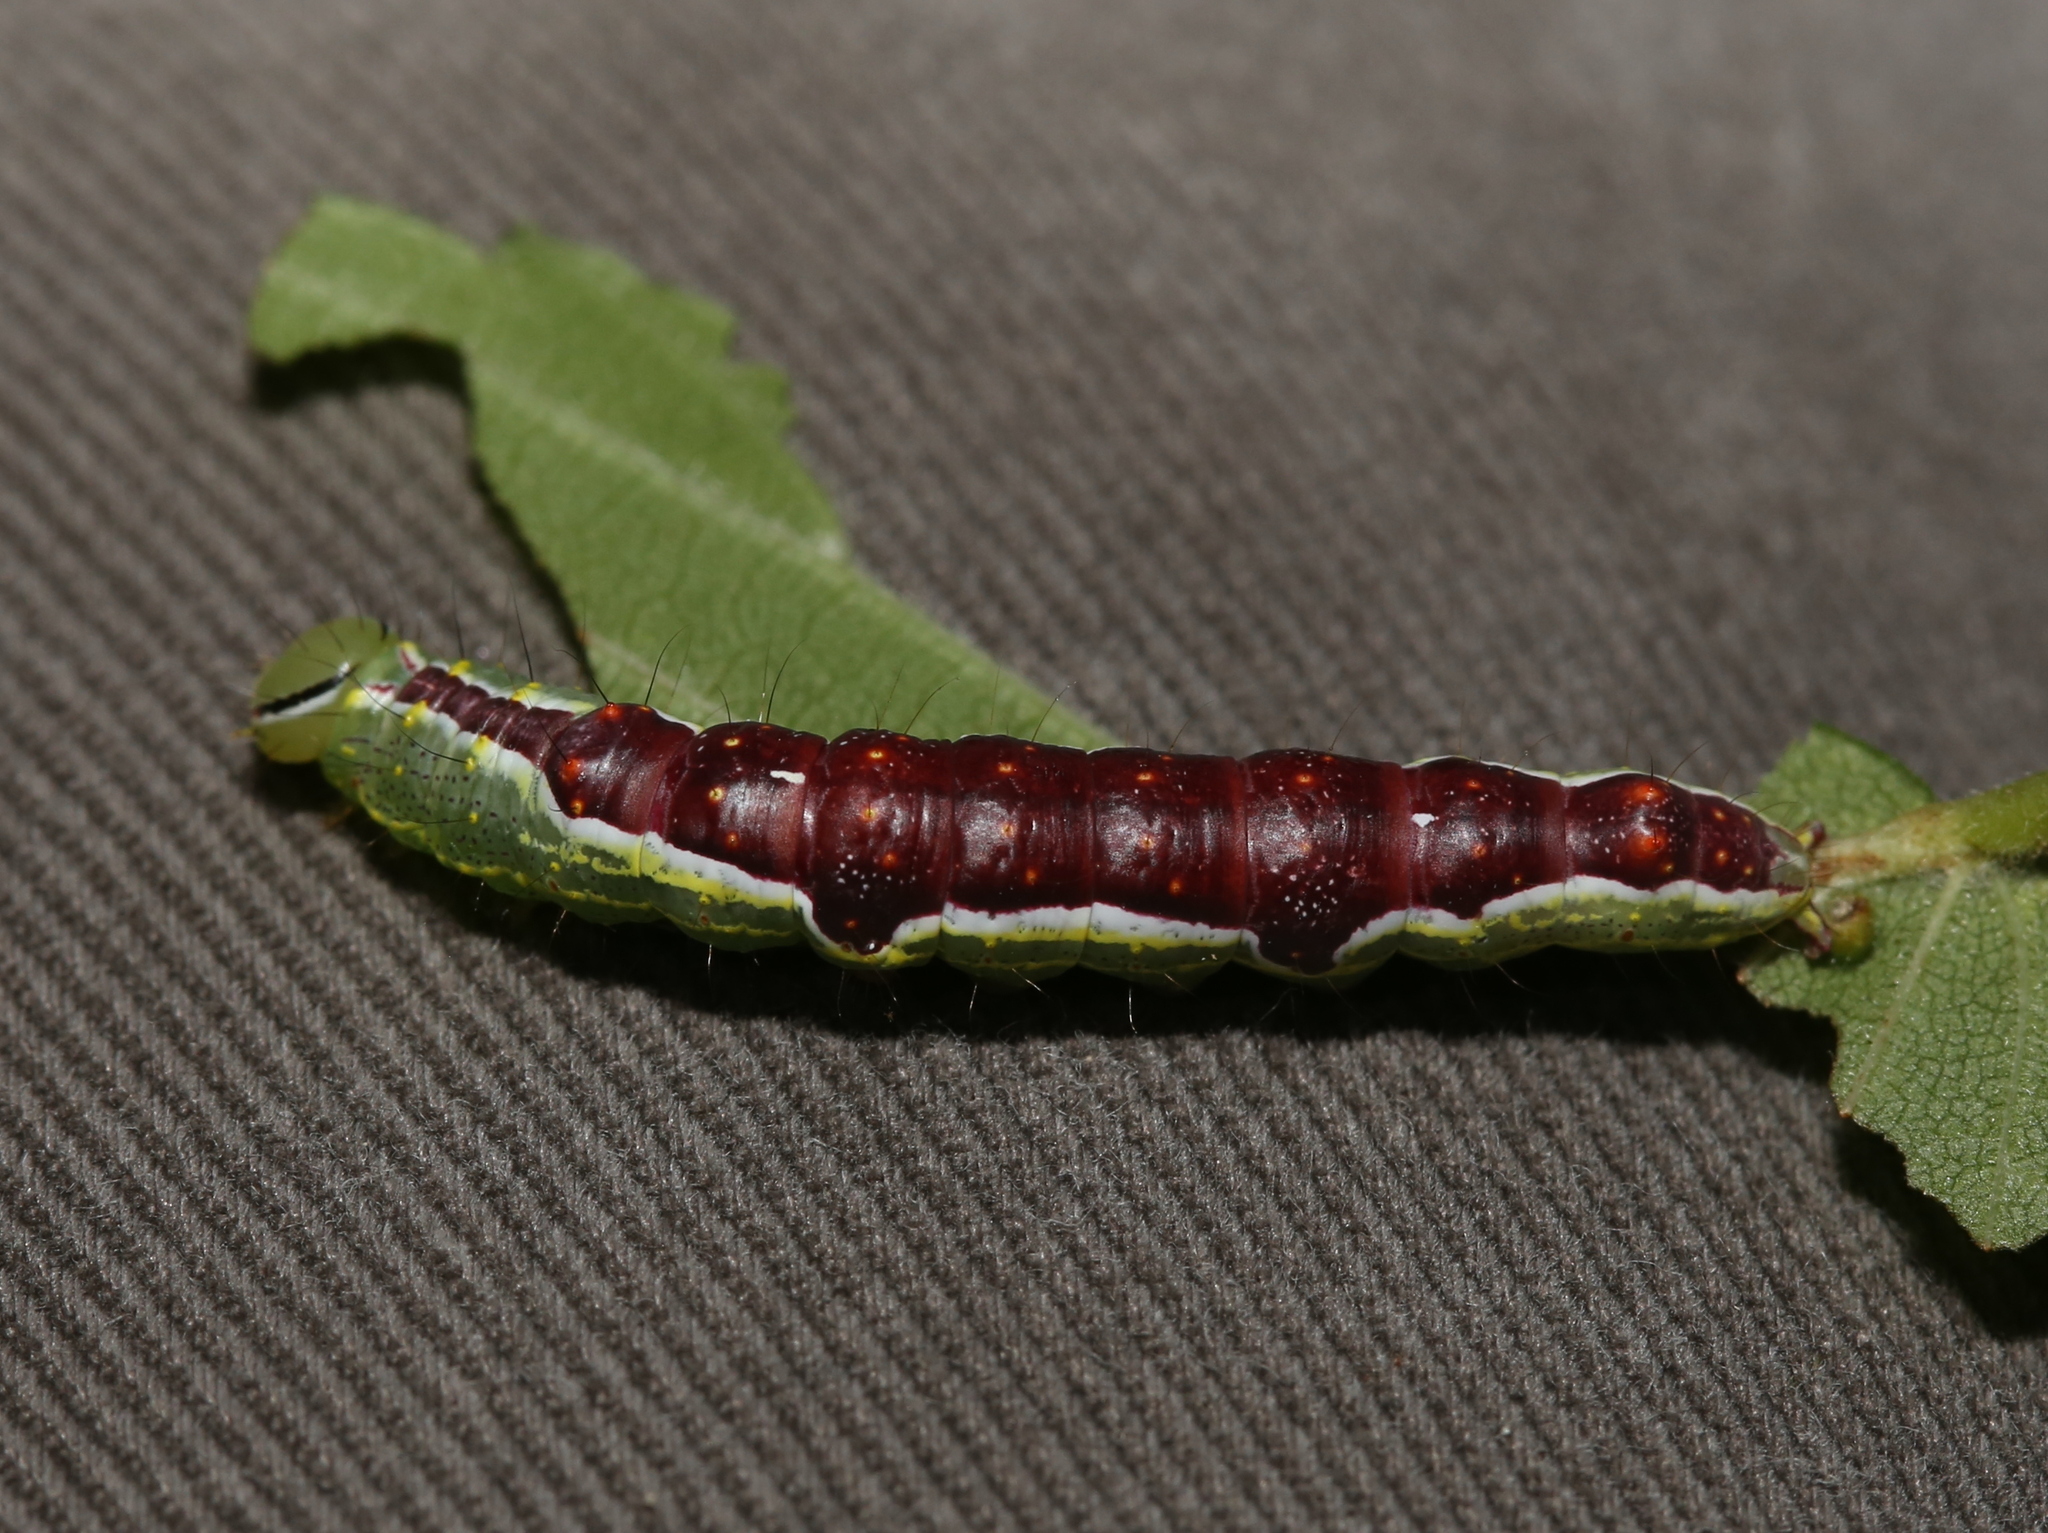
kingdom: Animalia
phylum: Arthropoda
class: Insecta
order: Lepidoptera
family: Notodontidae
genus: Lochmaeus
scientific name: Lochmaeus bilineata
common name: Double-lined prominent
